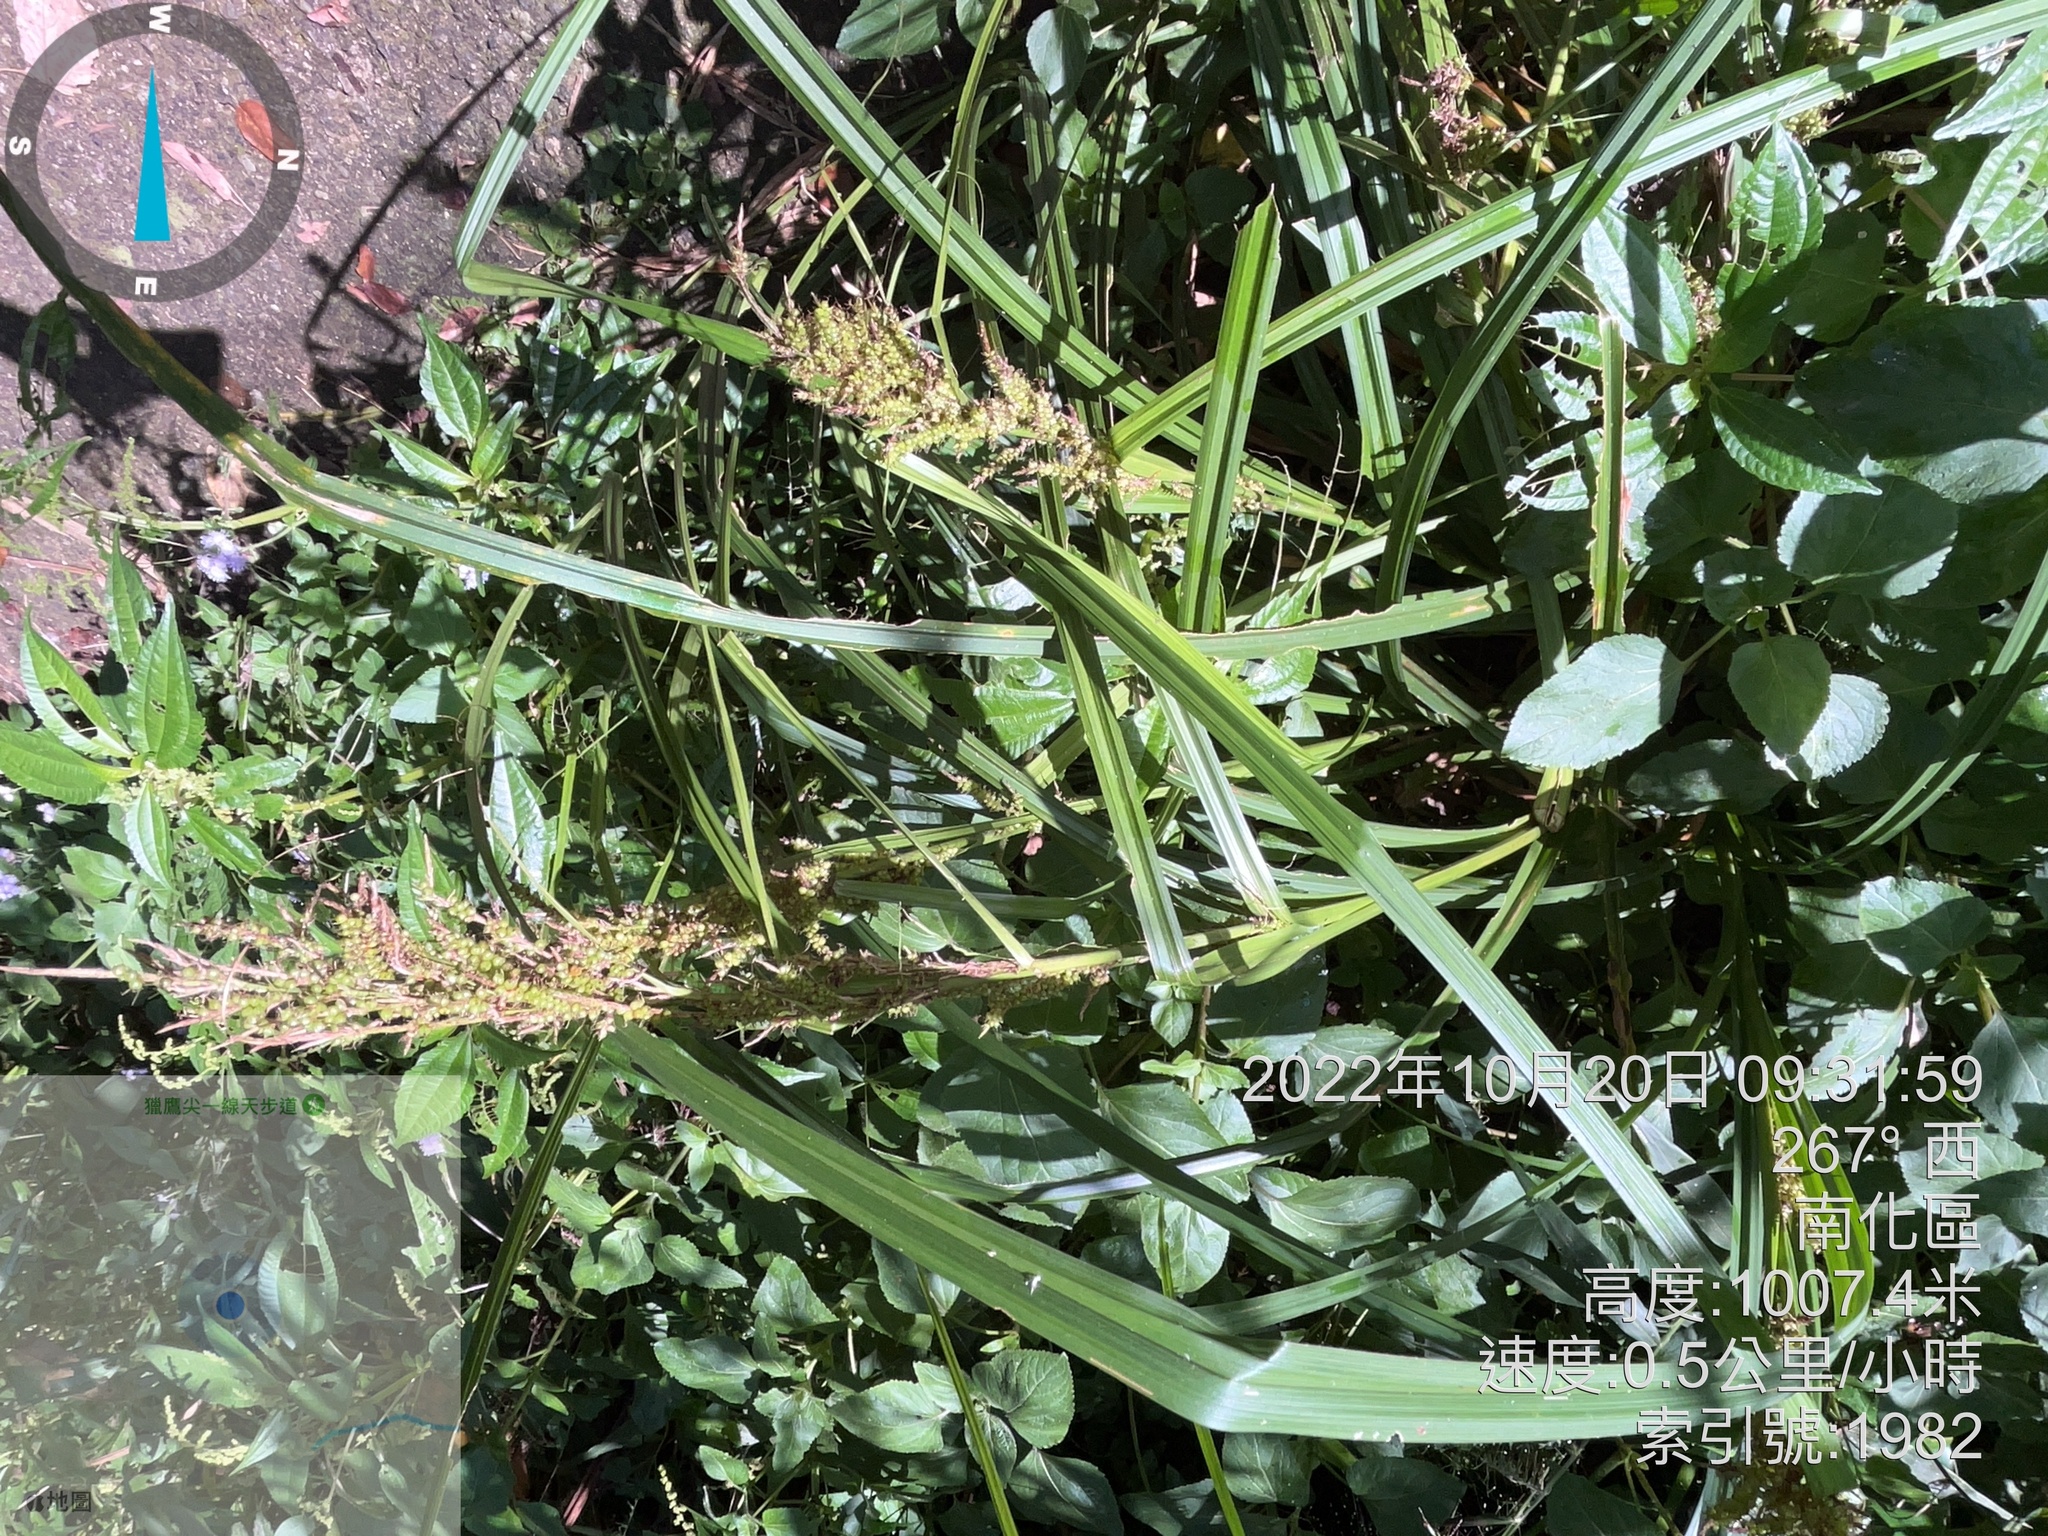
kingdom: Plantae
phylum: Tracheophyta
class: Liliopsida
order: Poales
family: Cyperaceae
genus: Carex
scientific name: Carex baccans
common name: Crimson seeded sedge
